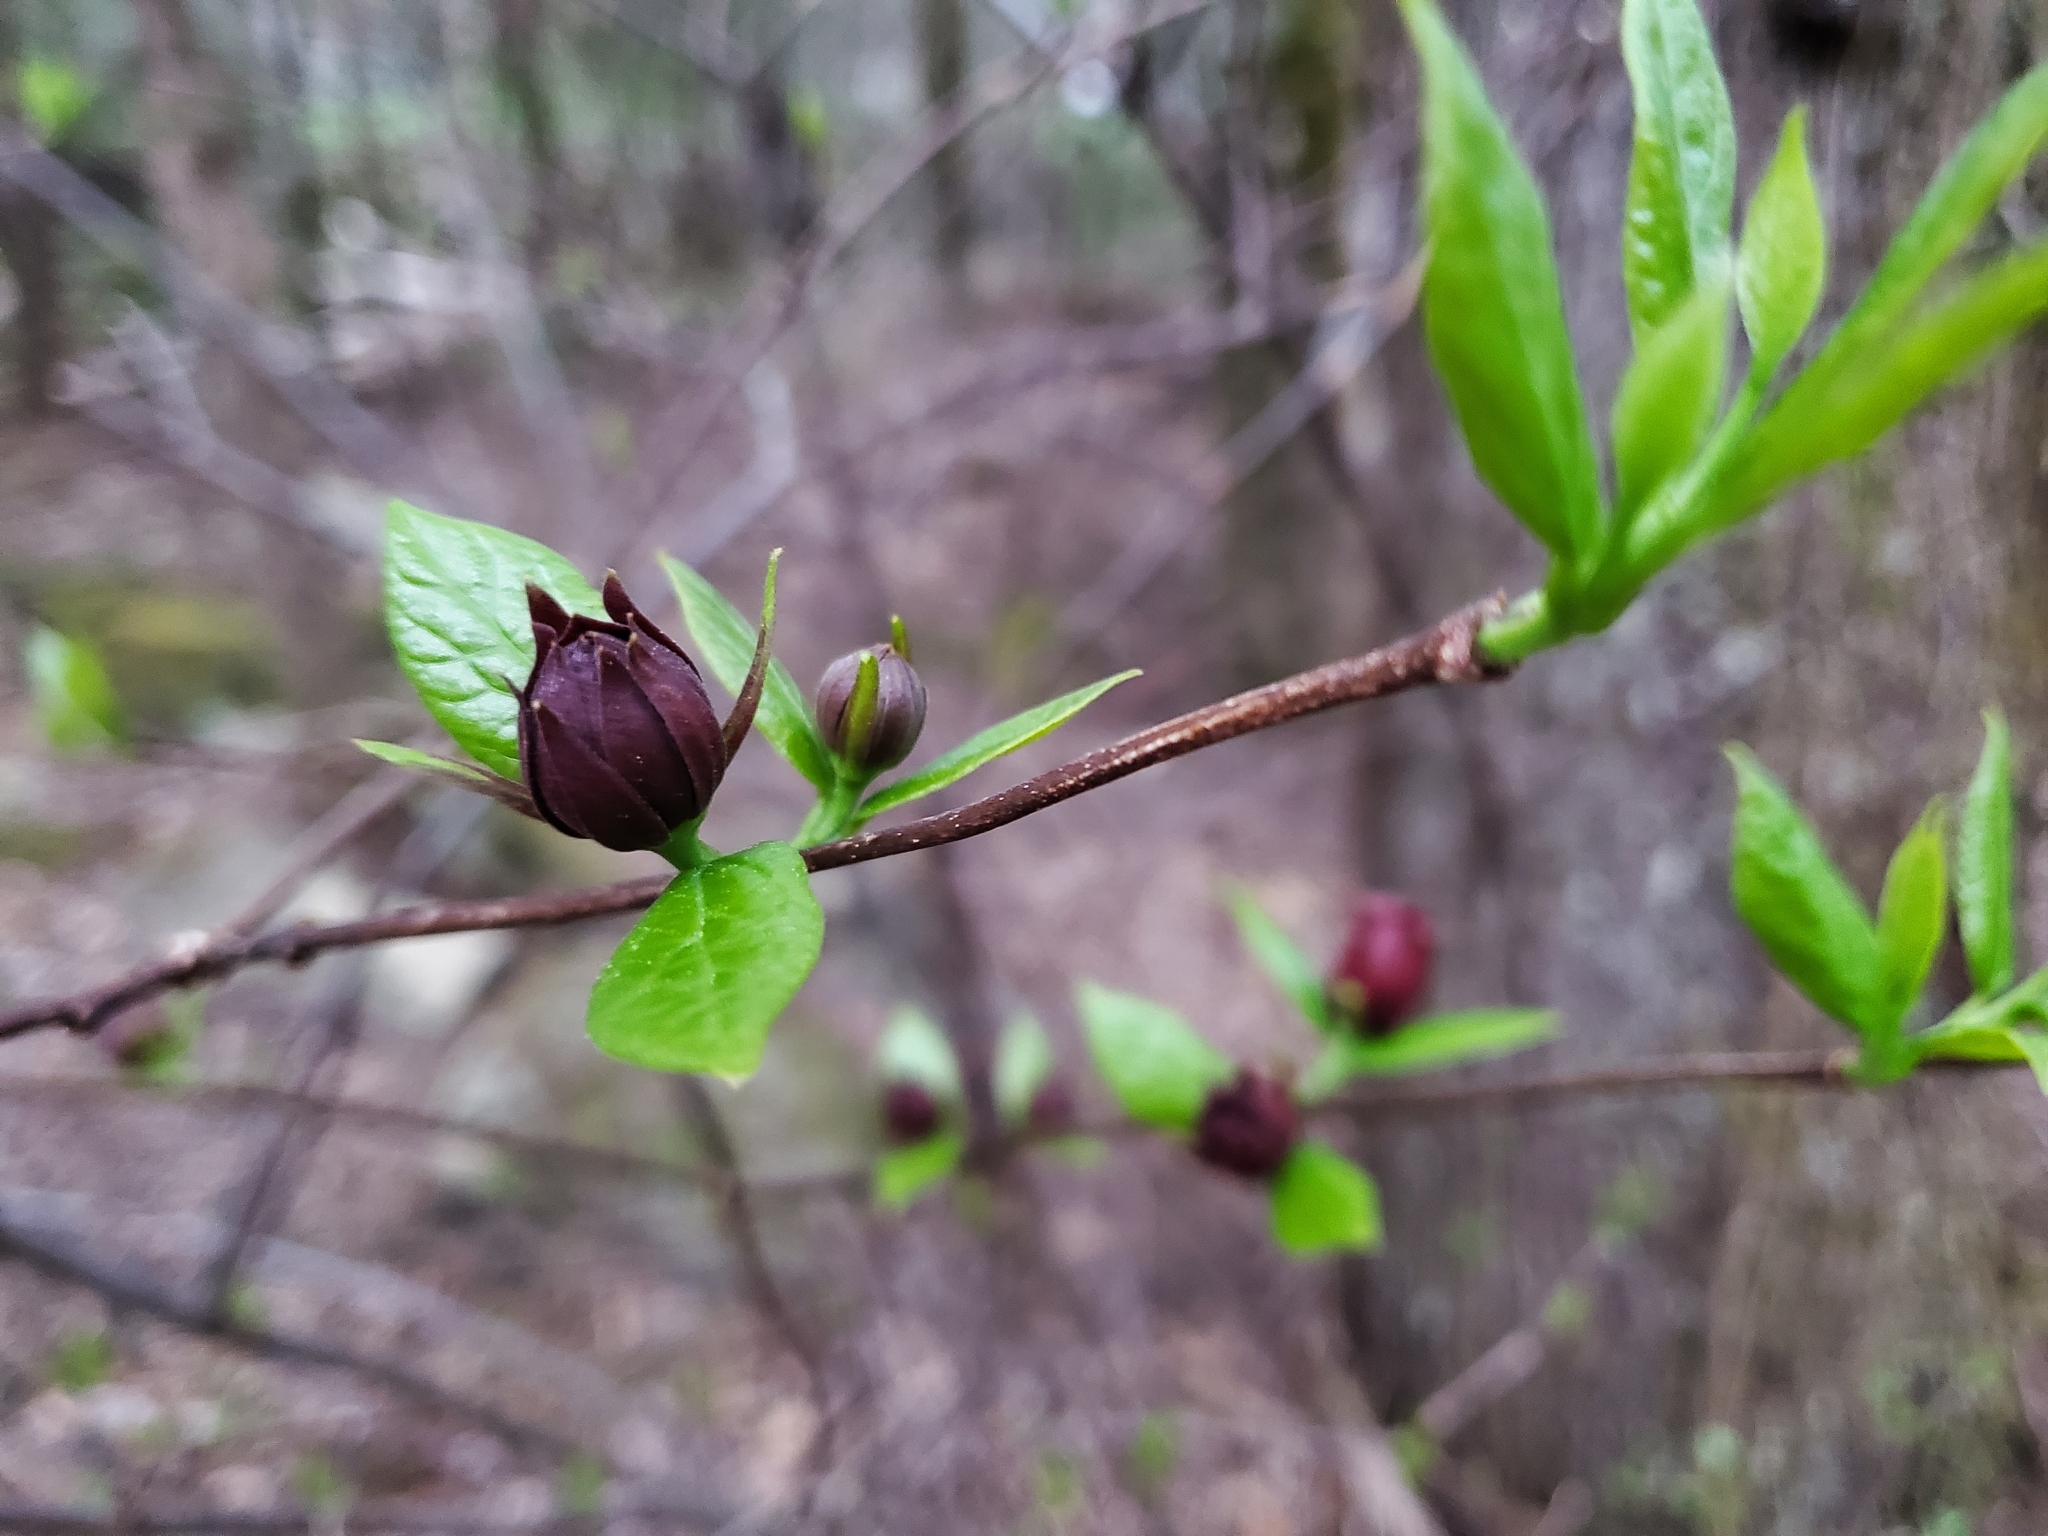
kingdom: Plantae
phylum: Tracheophyta
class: Magnoliopsida
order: Laurales
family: Calycanthaceae
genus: Calycanthus
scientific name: Calycanthus floridus
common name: Carolina-allspice
